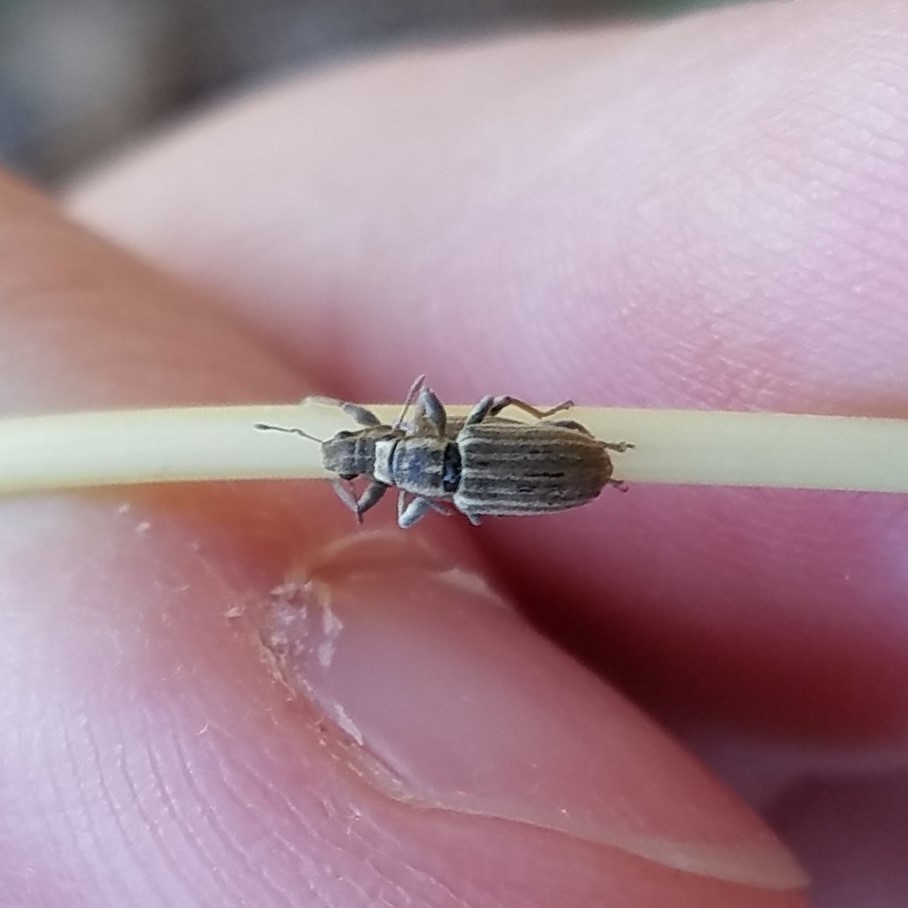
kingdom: Animalia
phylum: Arthropoda
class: Insecta
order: Coleoptera
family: Curculionidae
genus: Sitona
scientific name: Sitona lineatus
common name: Weevil
